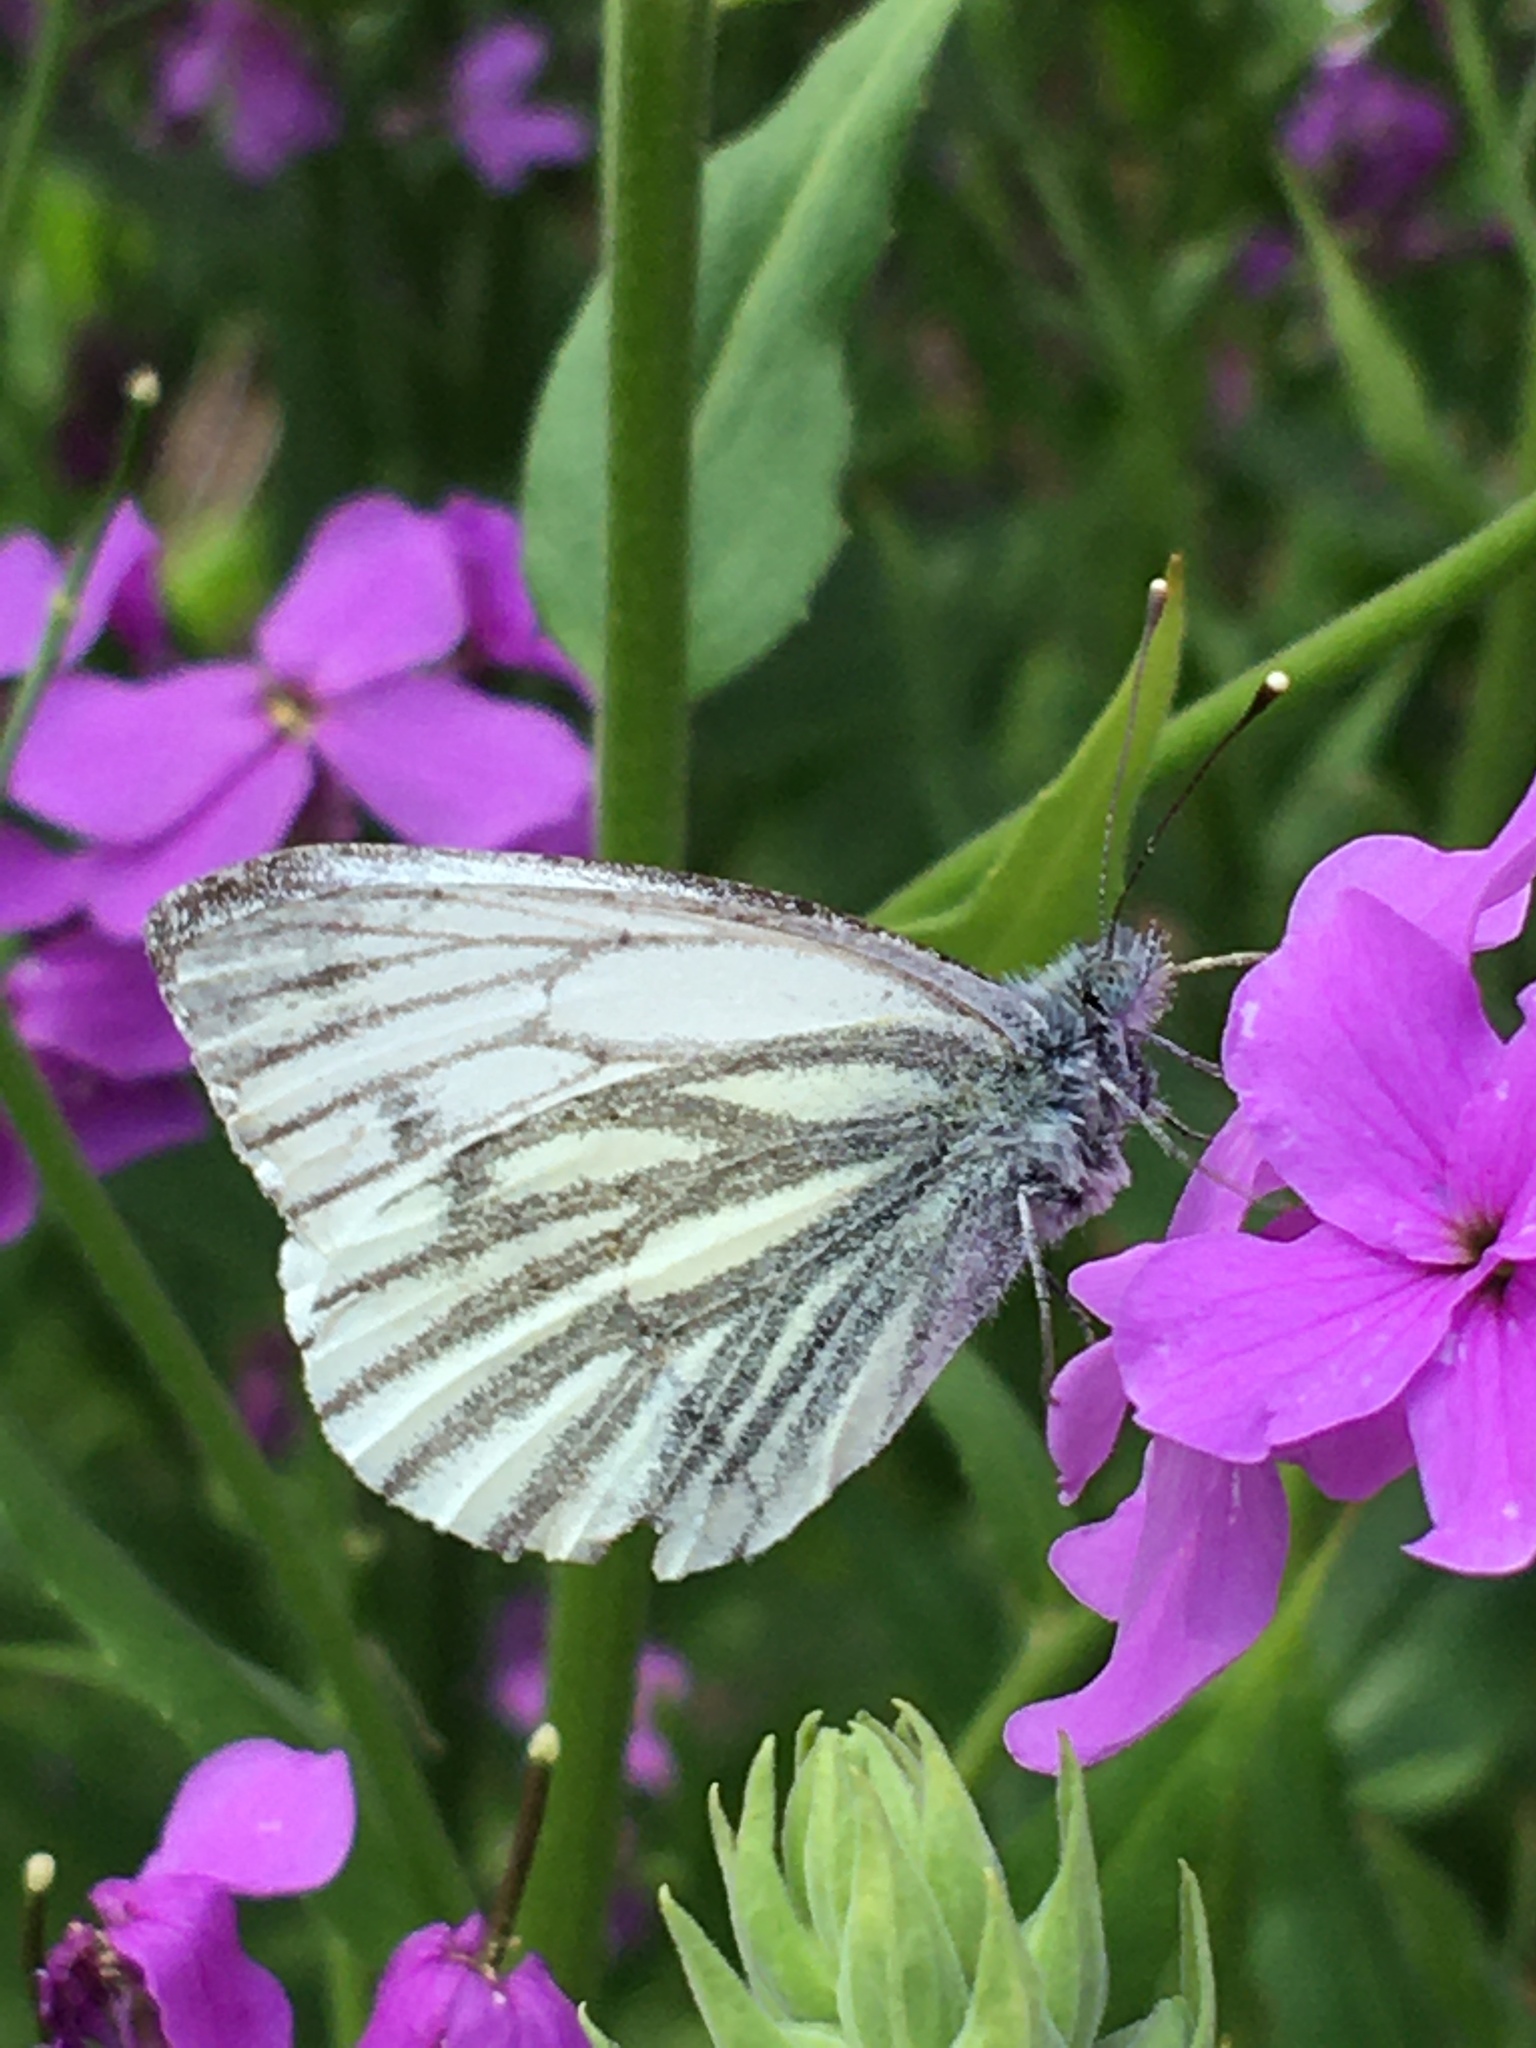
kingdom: Animalia
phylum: Arthropoda
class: Insecta
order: Lepidoptera
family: Pieridae
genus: Pieris
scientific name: Pieris napi
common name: Green-veined white
